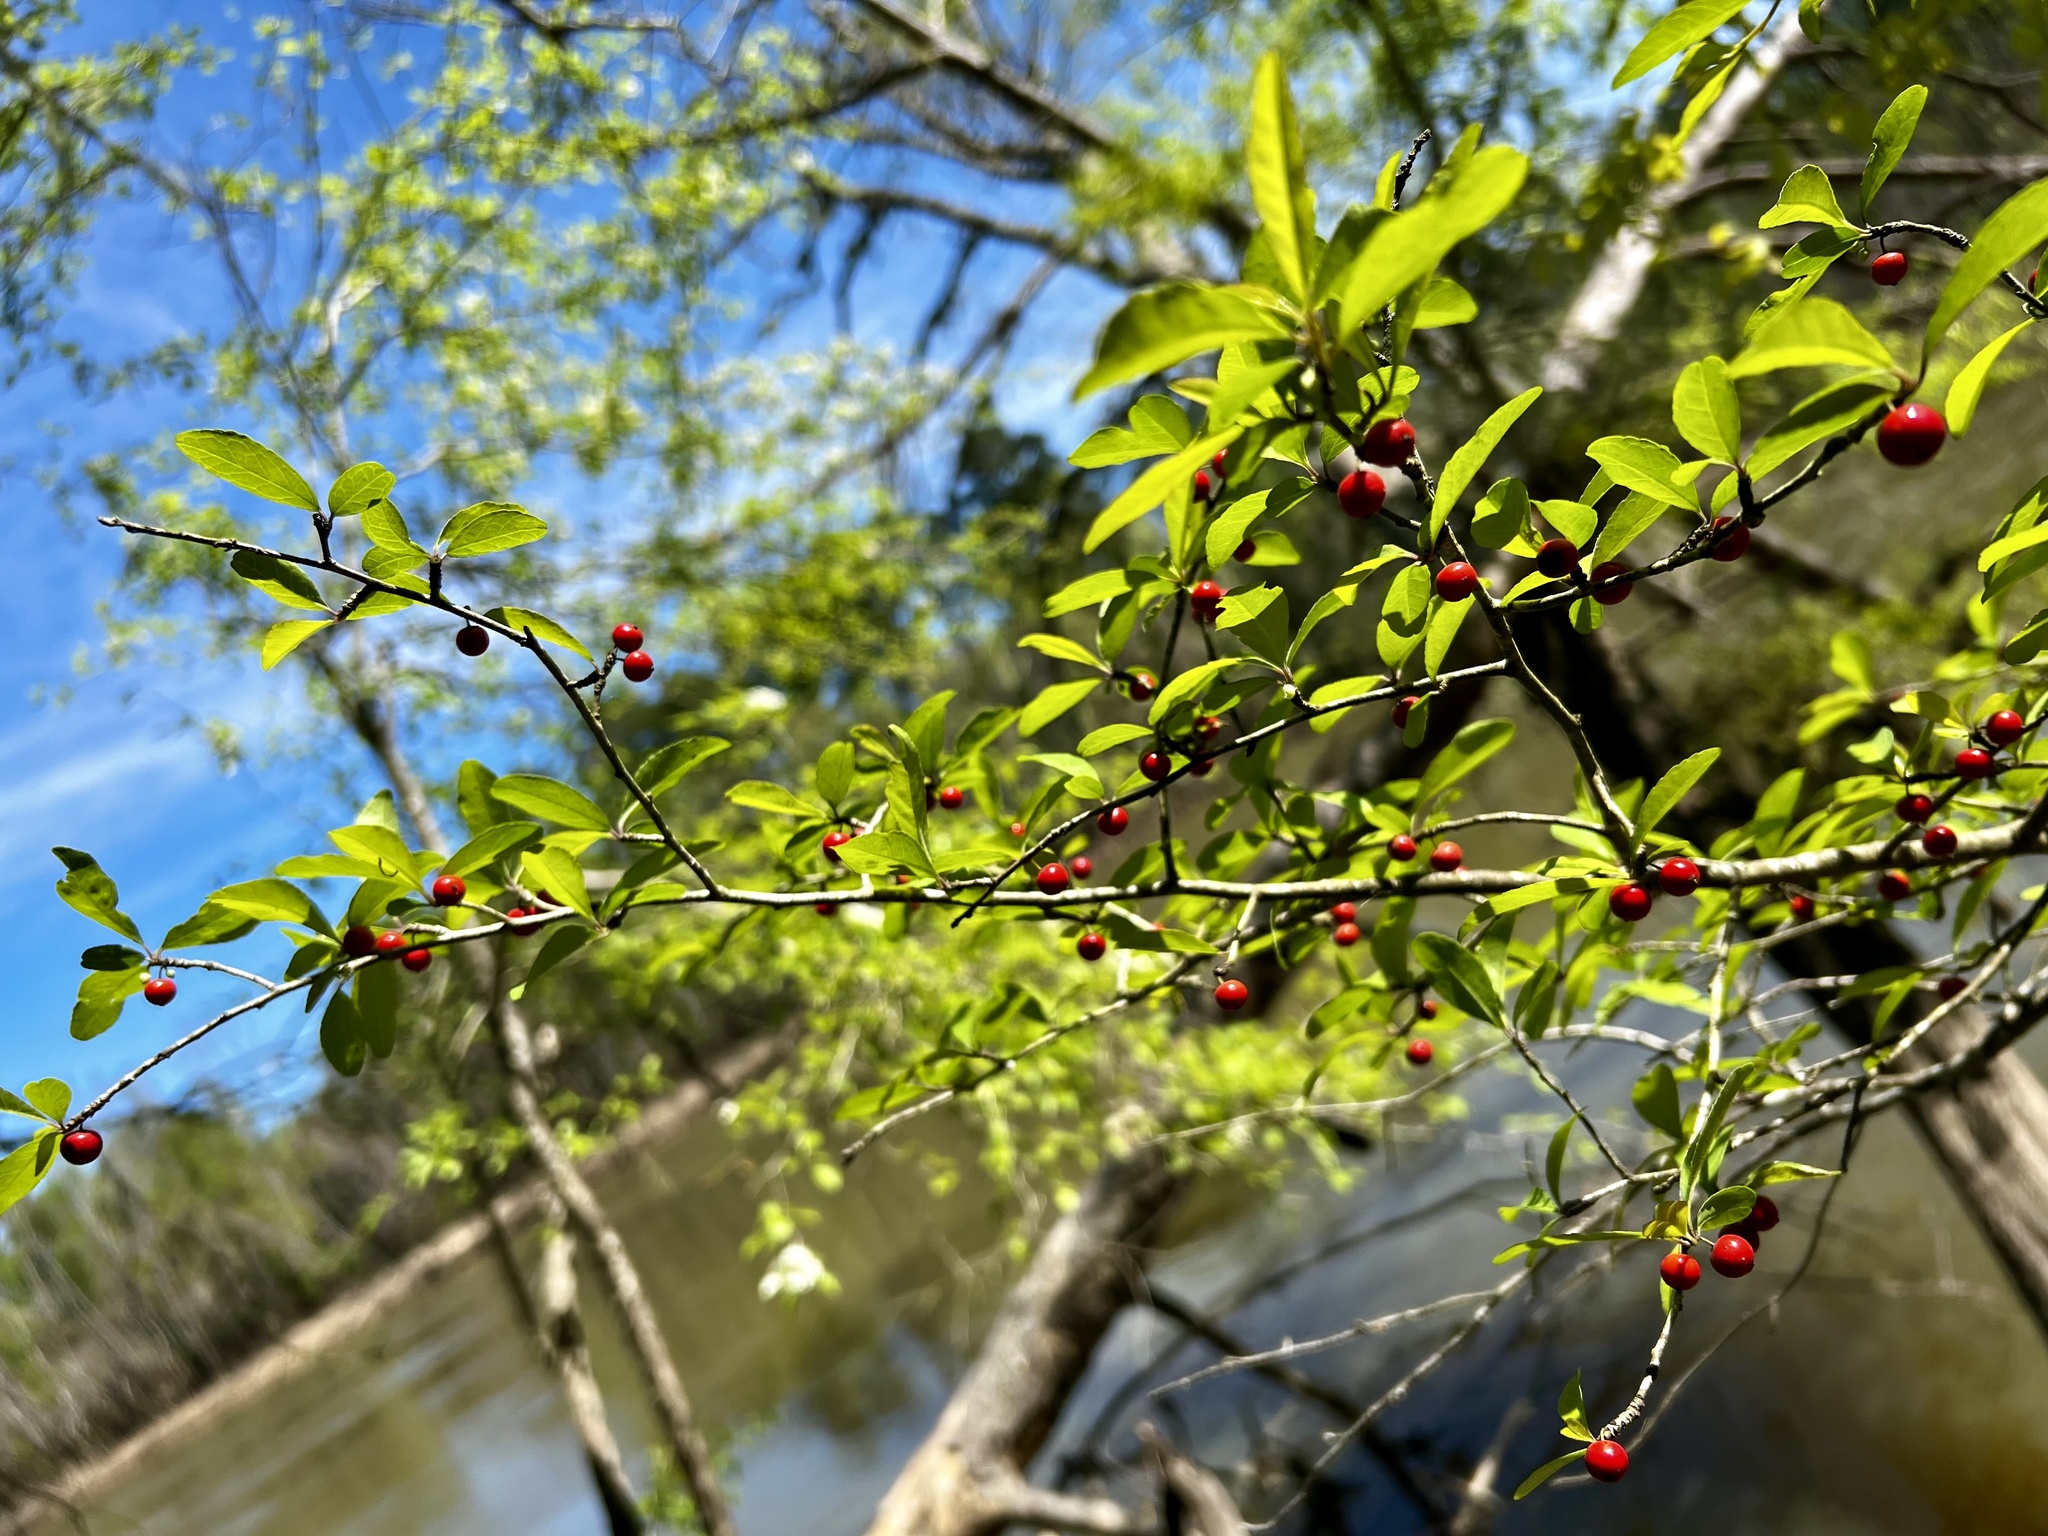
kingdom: Plantae
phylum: Tracheophyta
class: Magnoliopsida
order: Aquifoliales
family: Aquifoliaceae
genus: Ilex
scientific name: Ilex decidua
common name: Possum-haw
